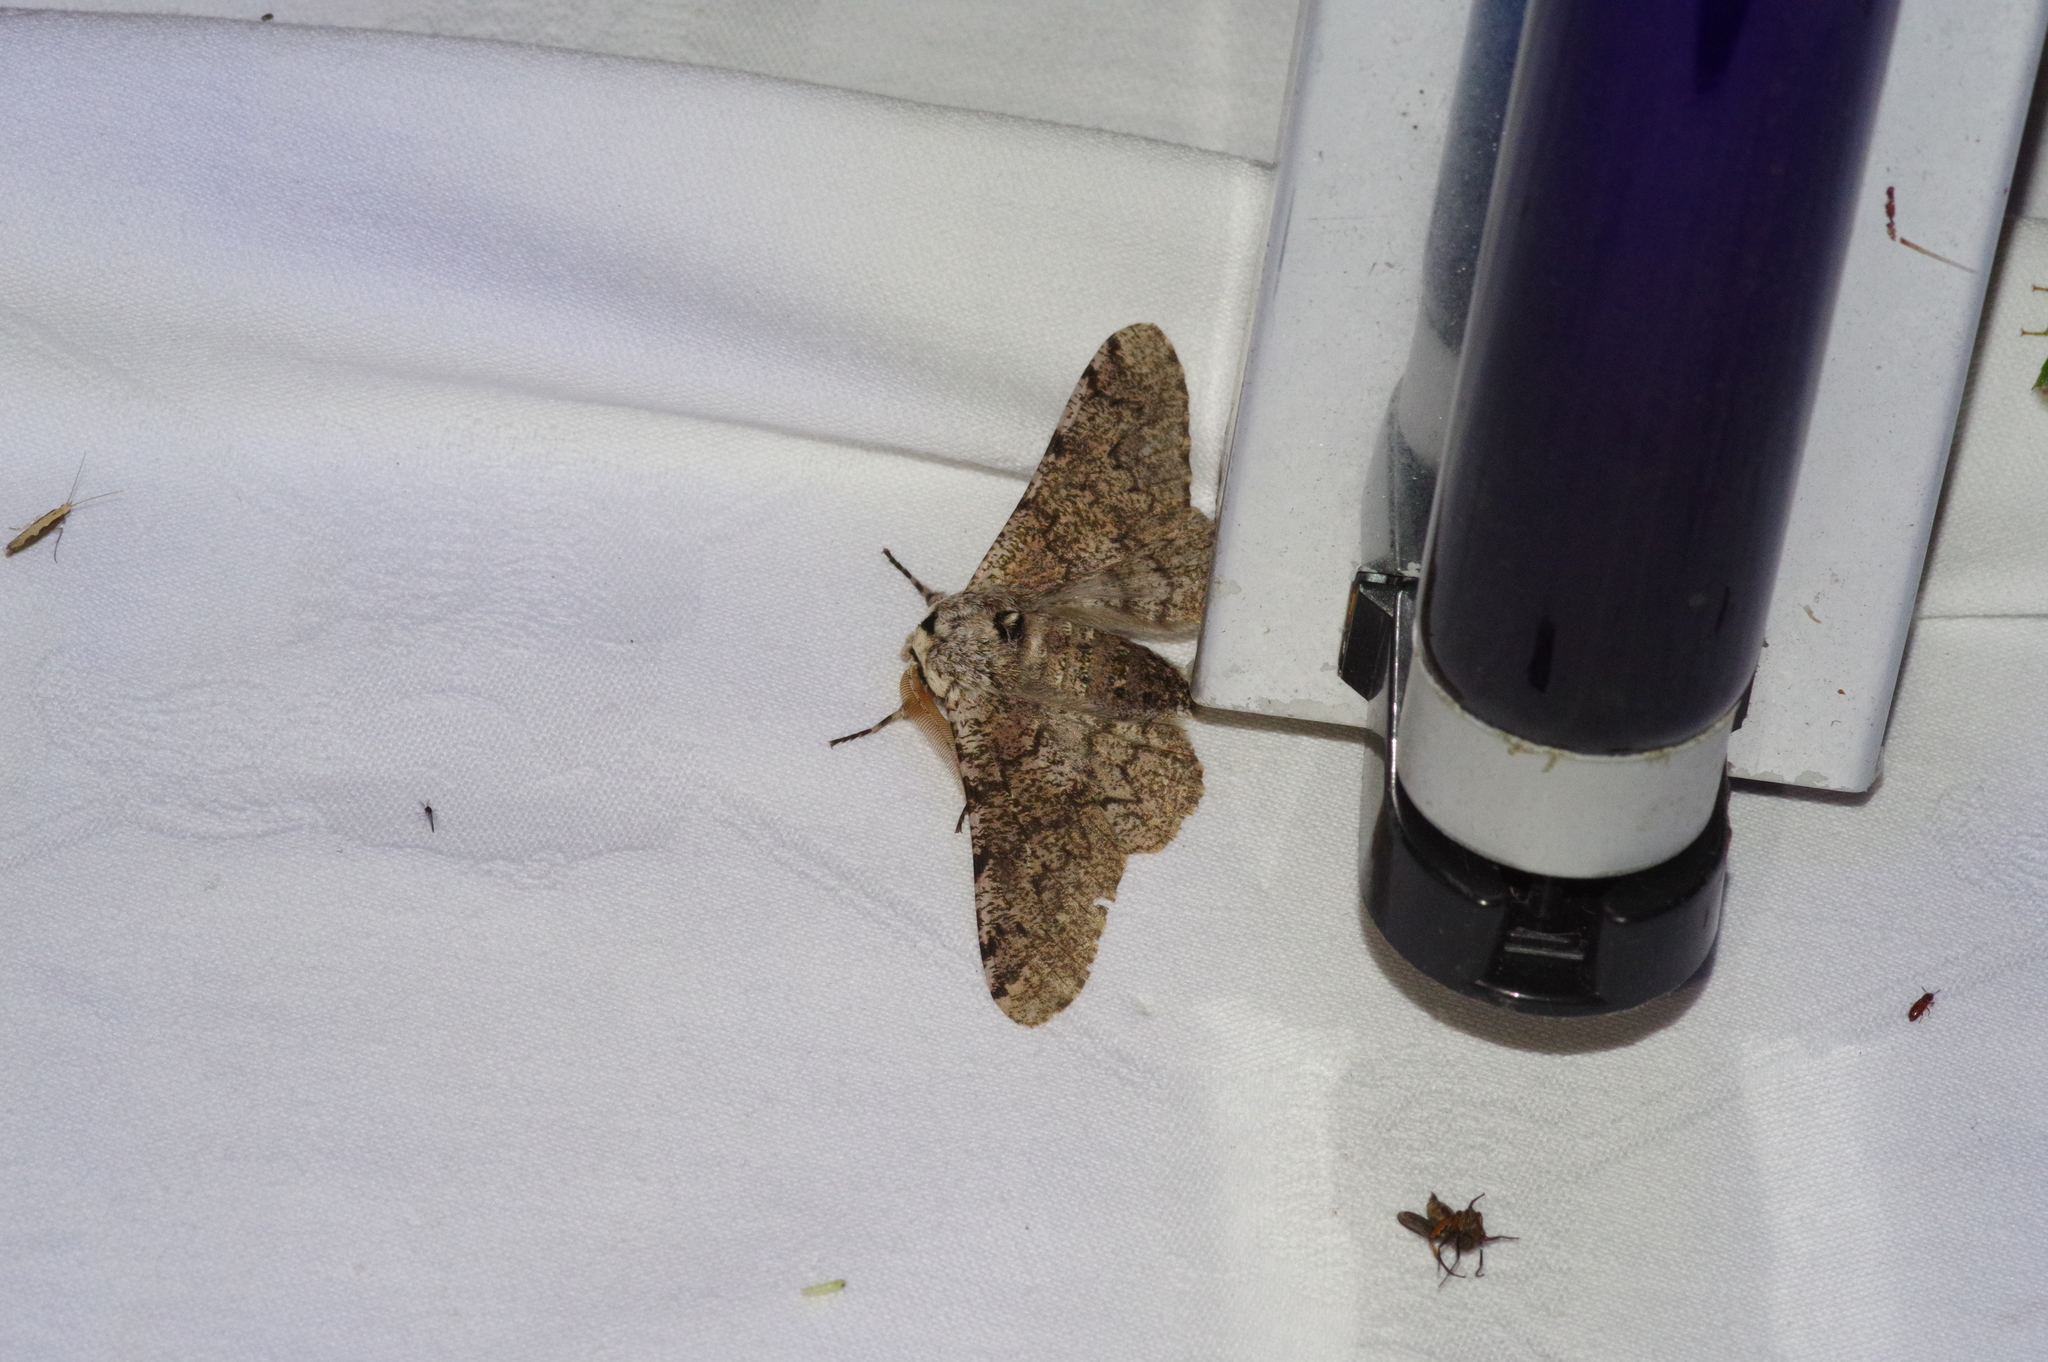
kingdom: Animalia
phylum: Arthropoda
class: Insecta
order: Lepidoptera
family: Geometridae
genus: Biston
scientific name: Biston robustum
